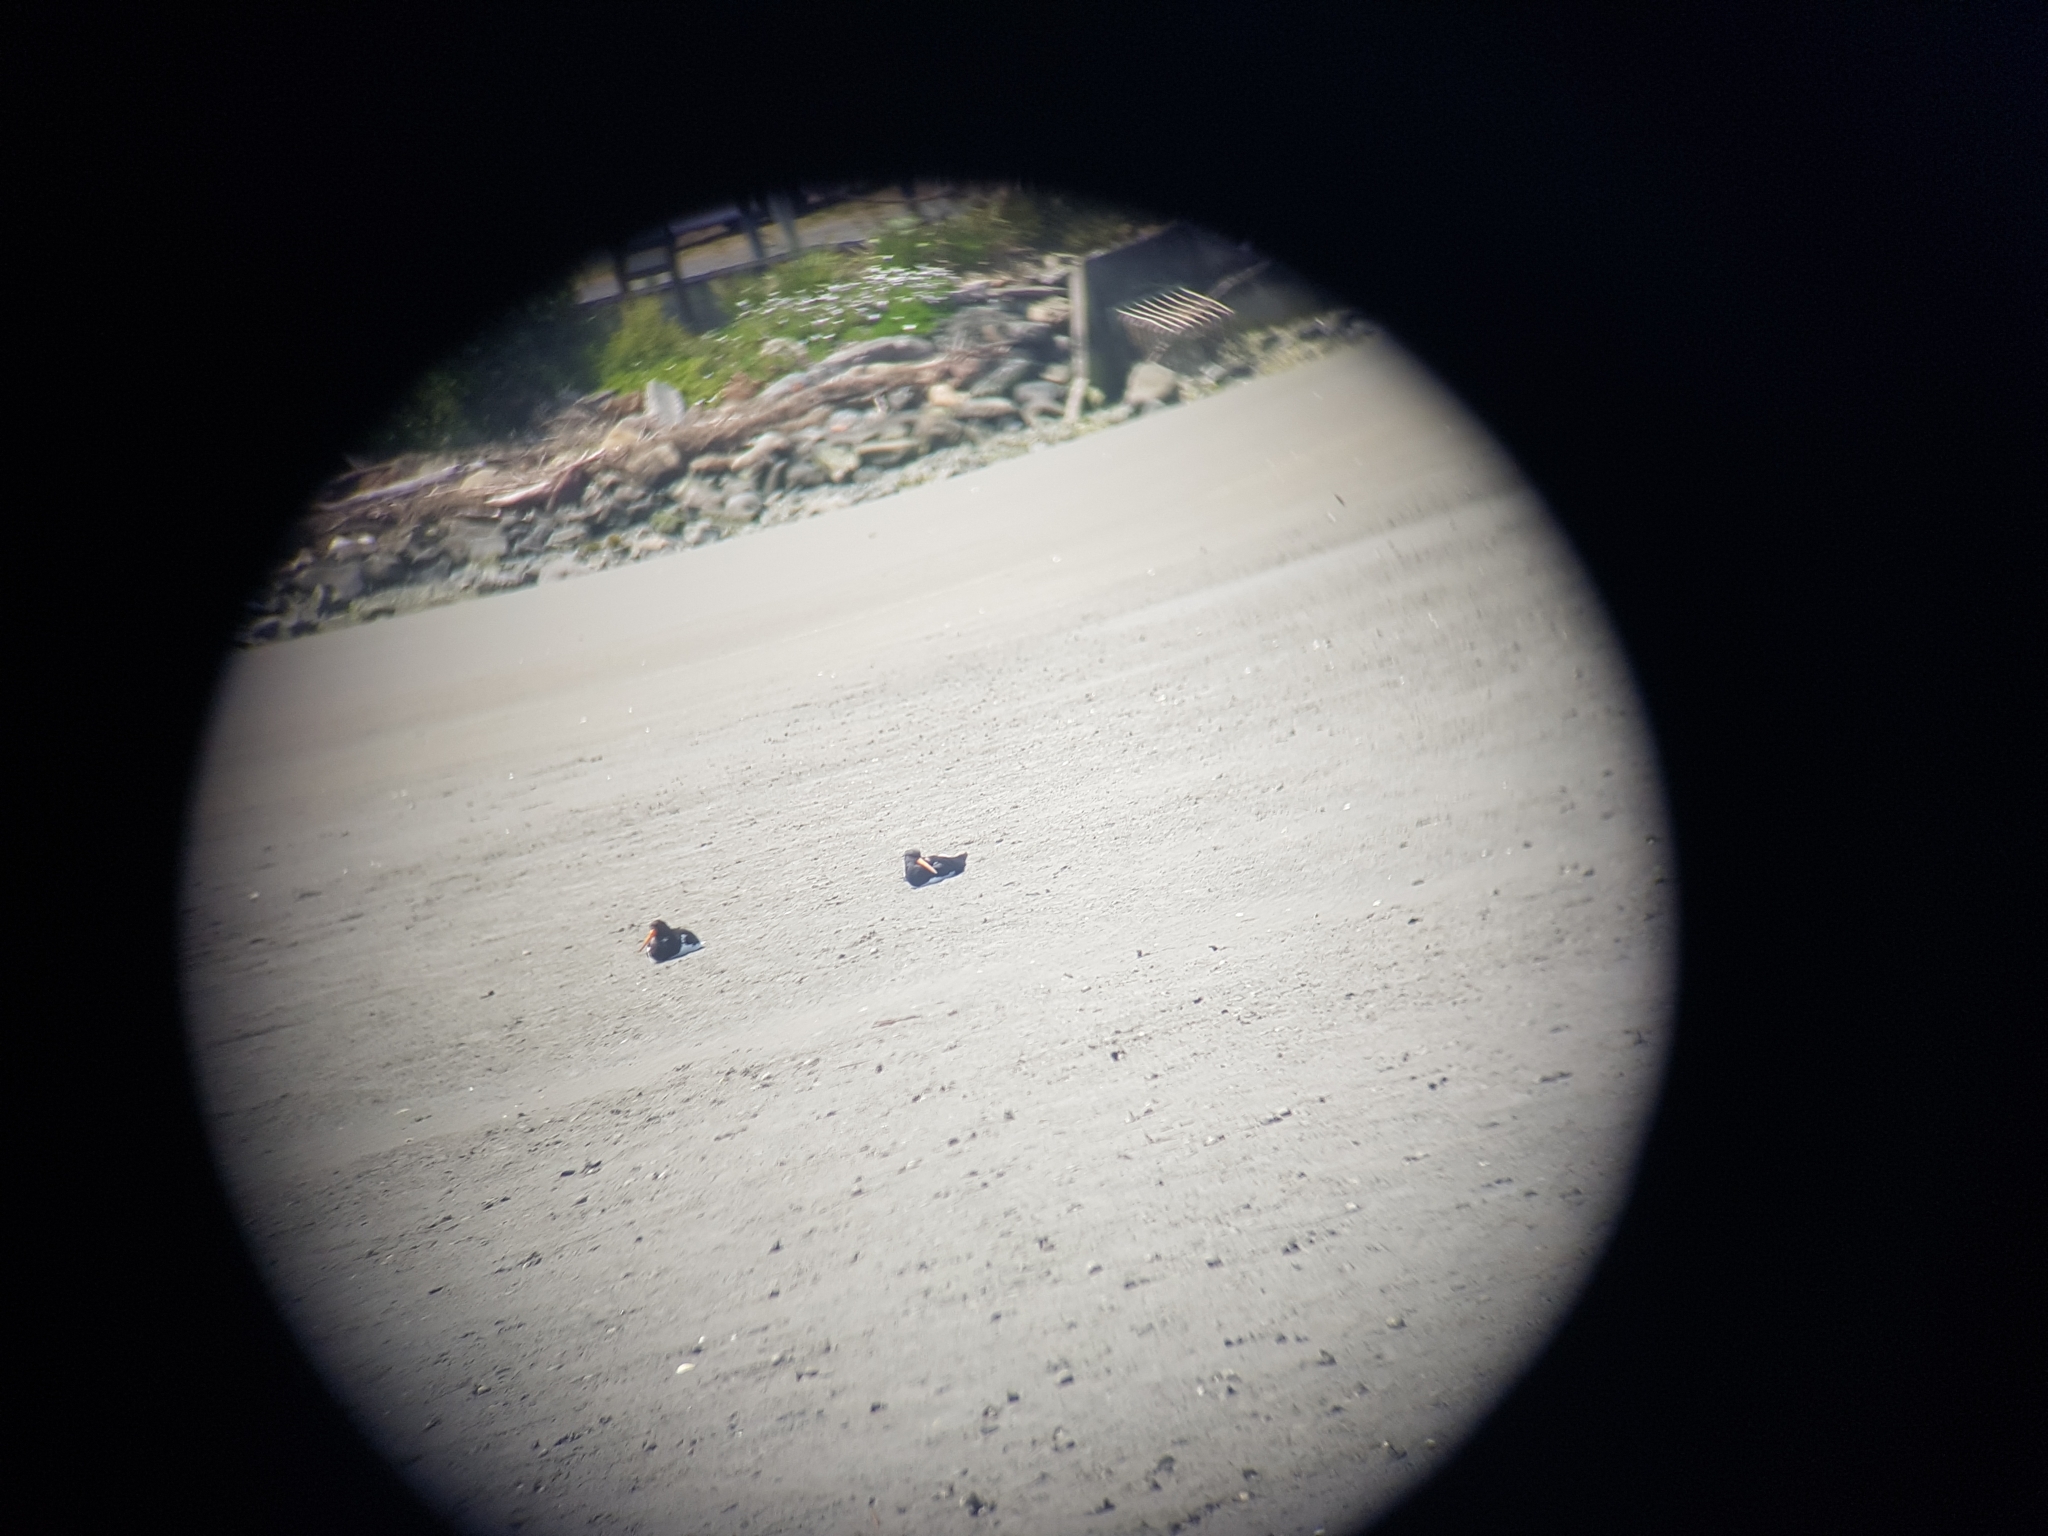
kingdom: Animalia
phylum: Chordata
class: Aves
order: Charadriiformes
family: Haematopodidae
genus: Haematopus
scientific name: Haematopus finschi
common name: South island oystercatcher
